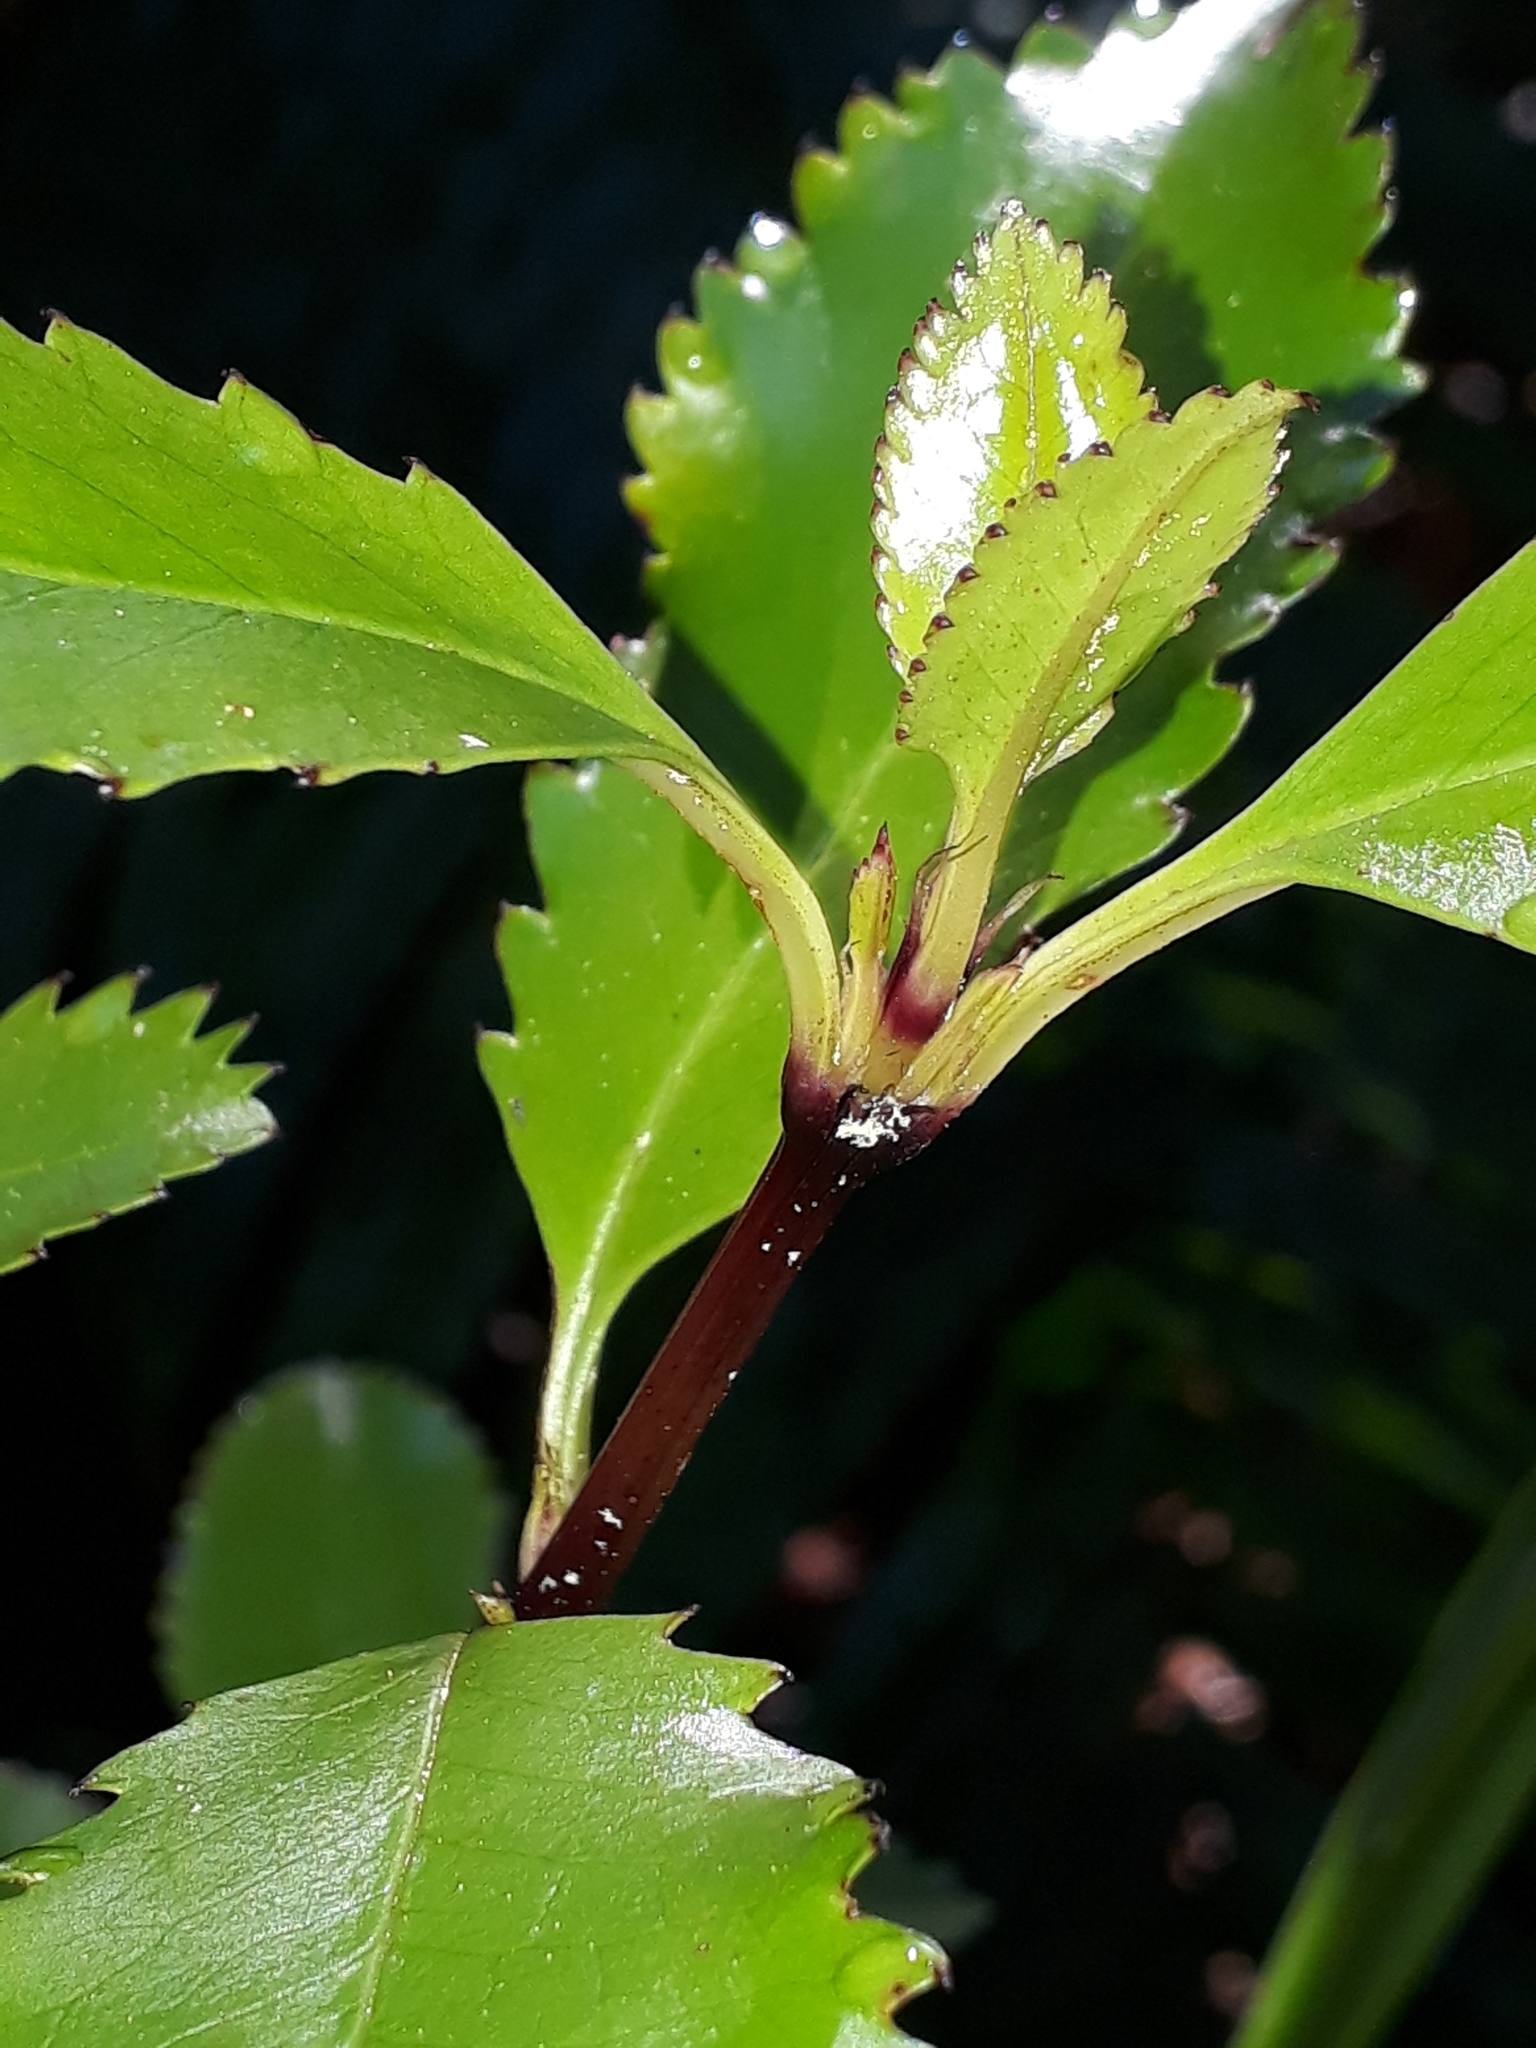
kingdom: Plantae
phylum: Tracheophyta
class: Magnoliopsida
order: Chloranthales
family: Chloranthaceae
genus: Ascarina
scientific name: Ascarina lucida
